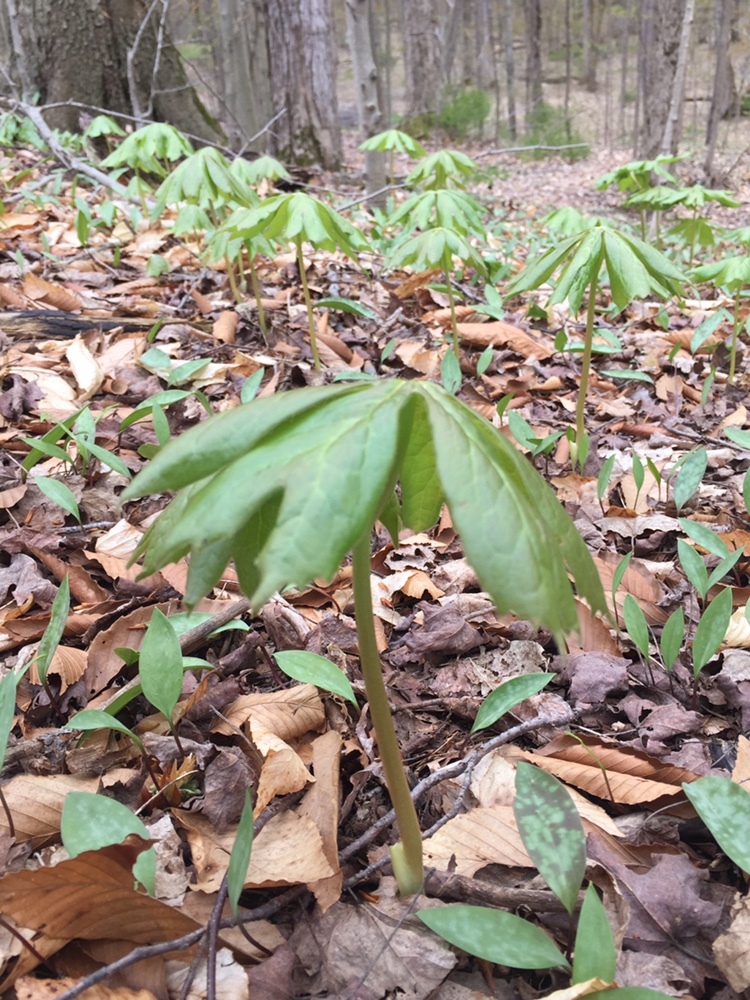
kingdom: Plantae
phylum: Tracheophyta
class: Magnoliopsida
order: Ranunculales
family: Berberidaceae
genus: Podophyllum
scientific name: Podophyllum peltatum
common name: Wild mandrake
